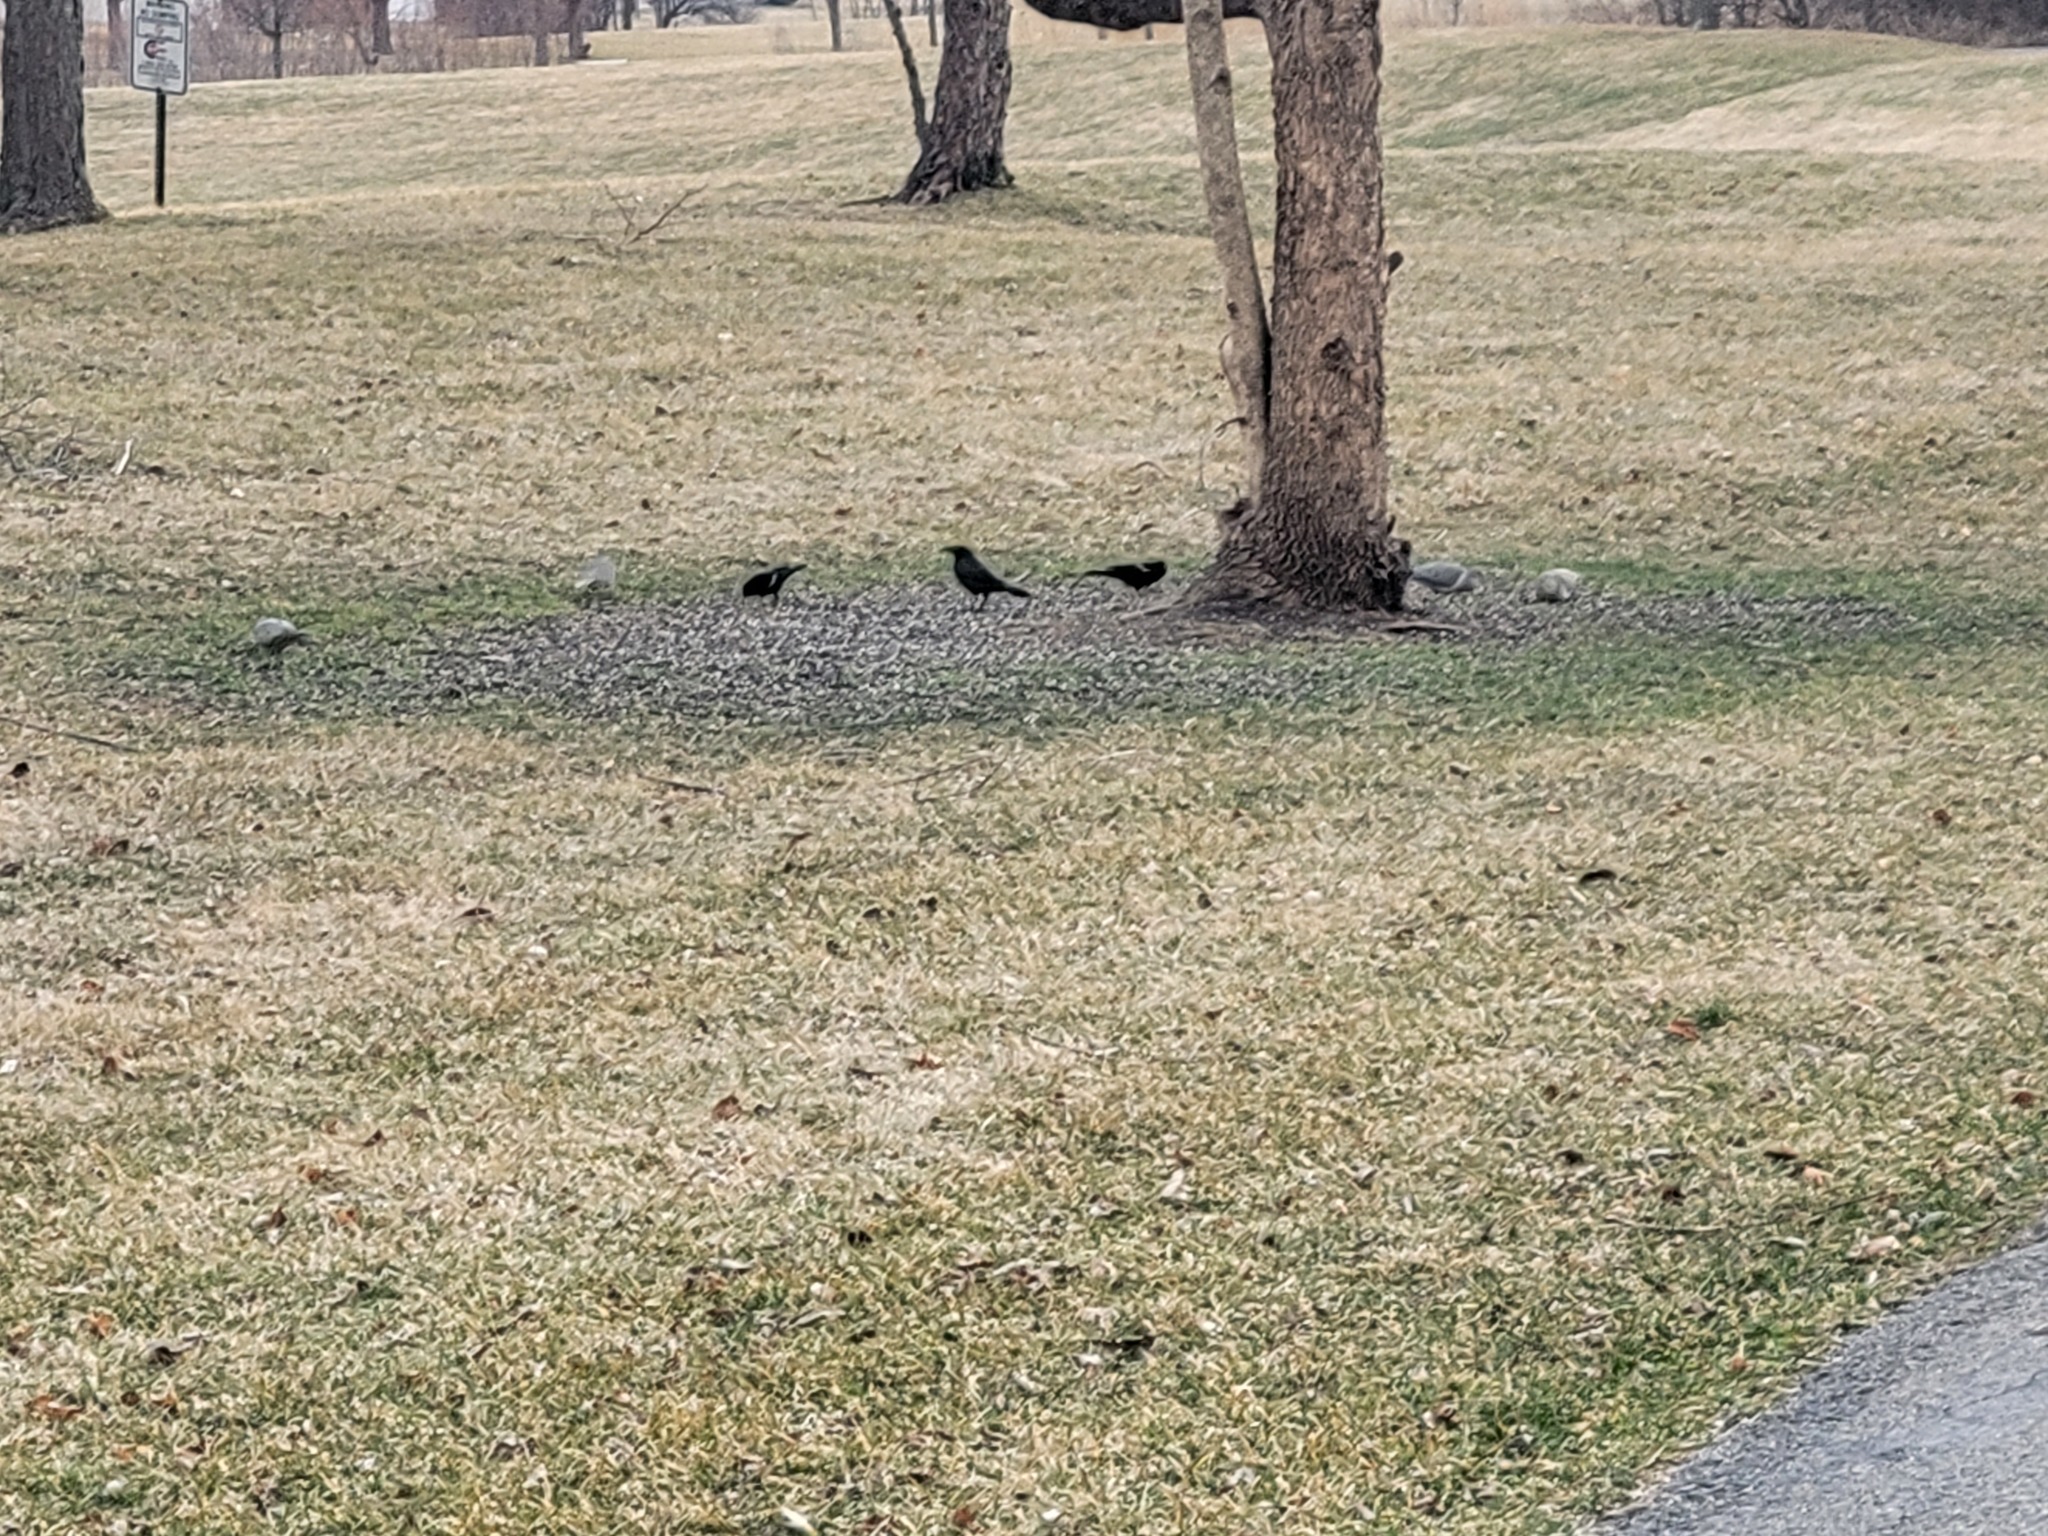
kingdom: Animalia
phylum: Chordata
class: Aves
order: Passeriformes
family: Icteridae
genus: Agelaius
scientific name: Agelaius phoeniceus
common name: Red-winged blackbird
